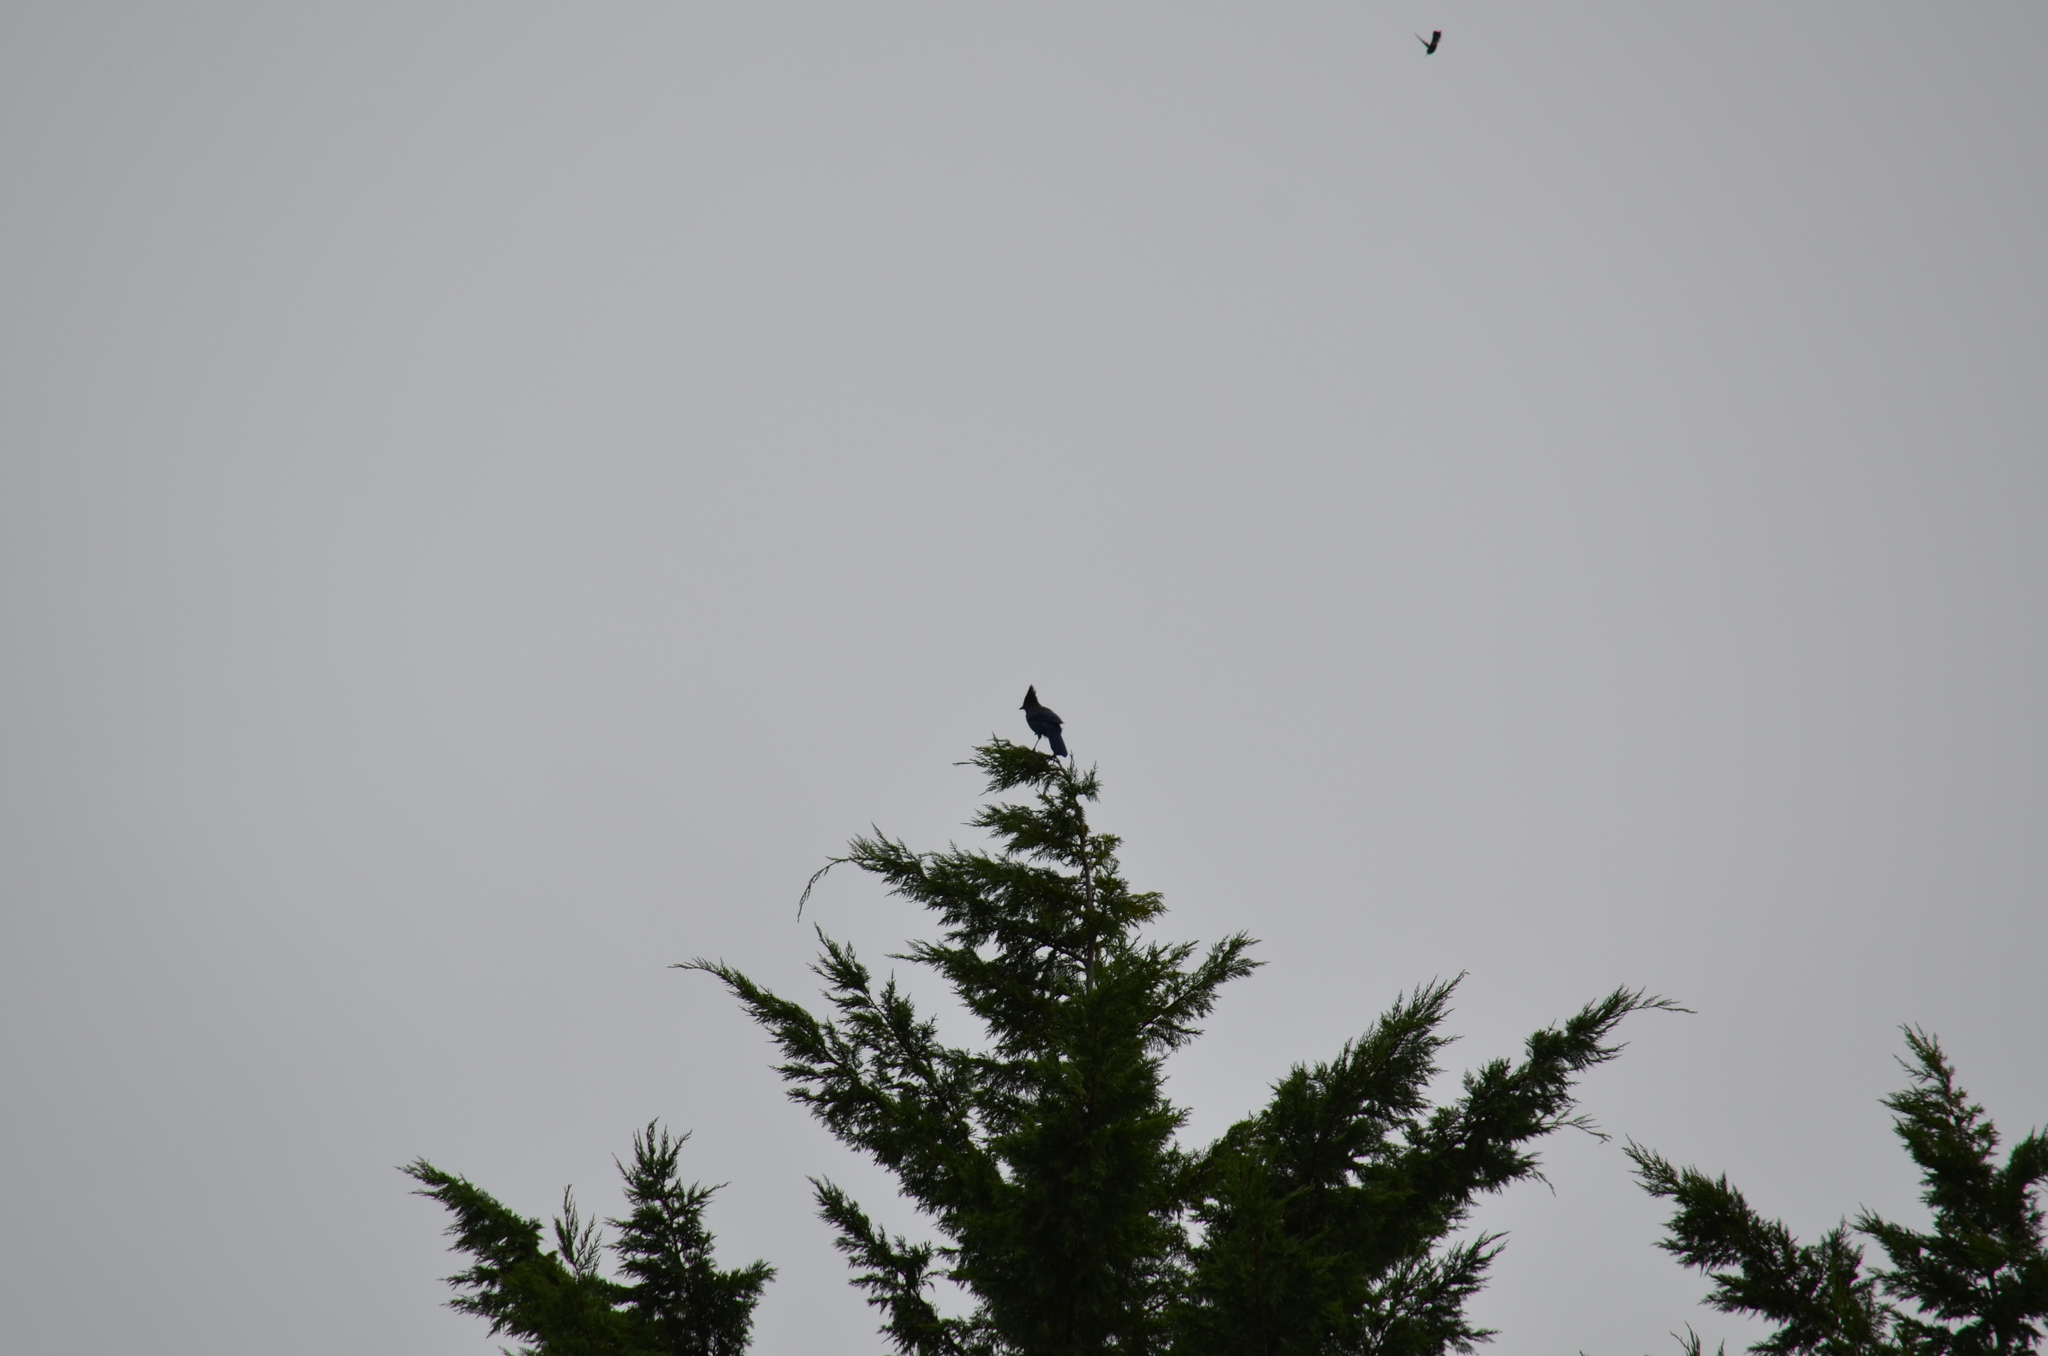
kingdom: Animalia
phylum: Chordata
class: Aves
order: Passeriformes
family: Corvidae
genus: Cyanocitta
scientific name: Cyanocitta stelleri
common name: Steller's jay
